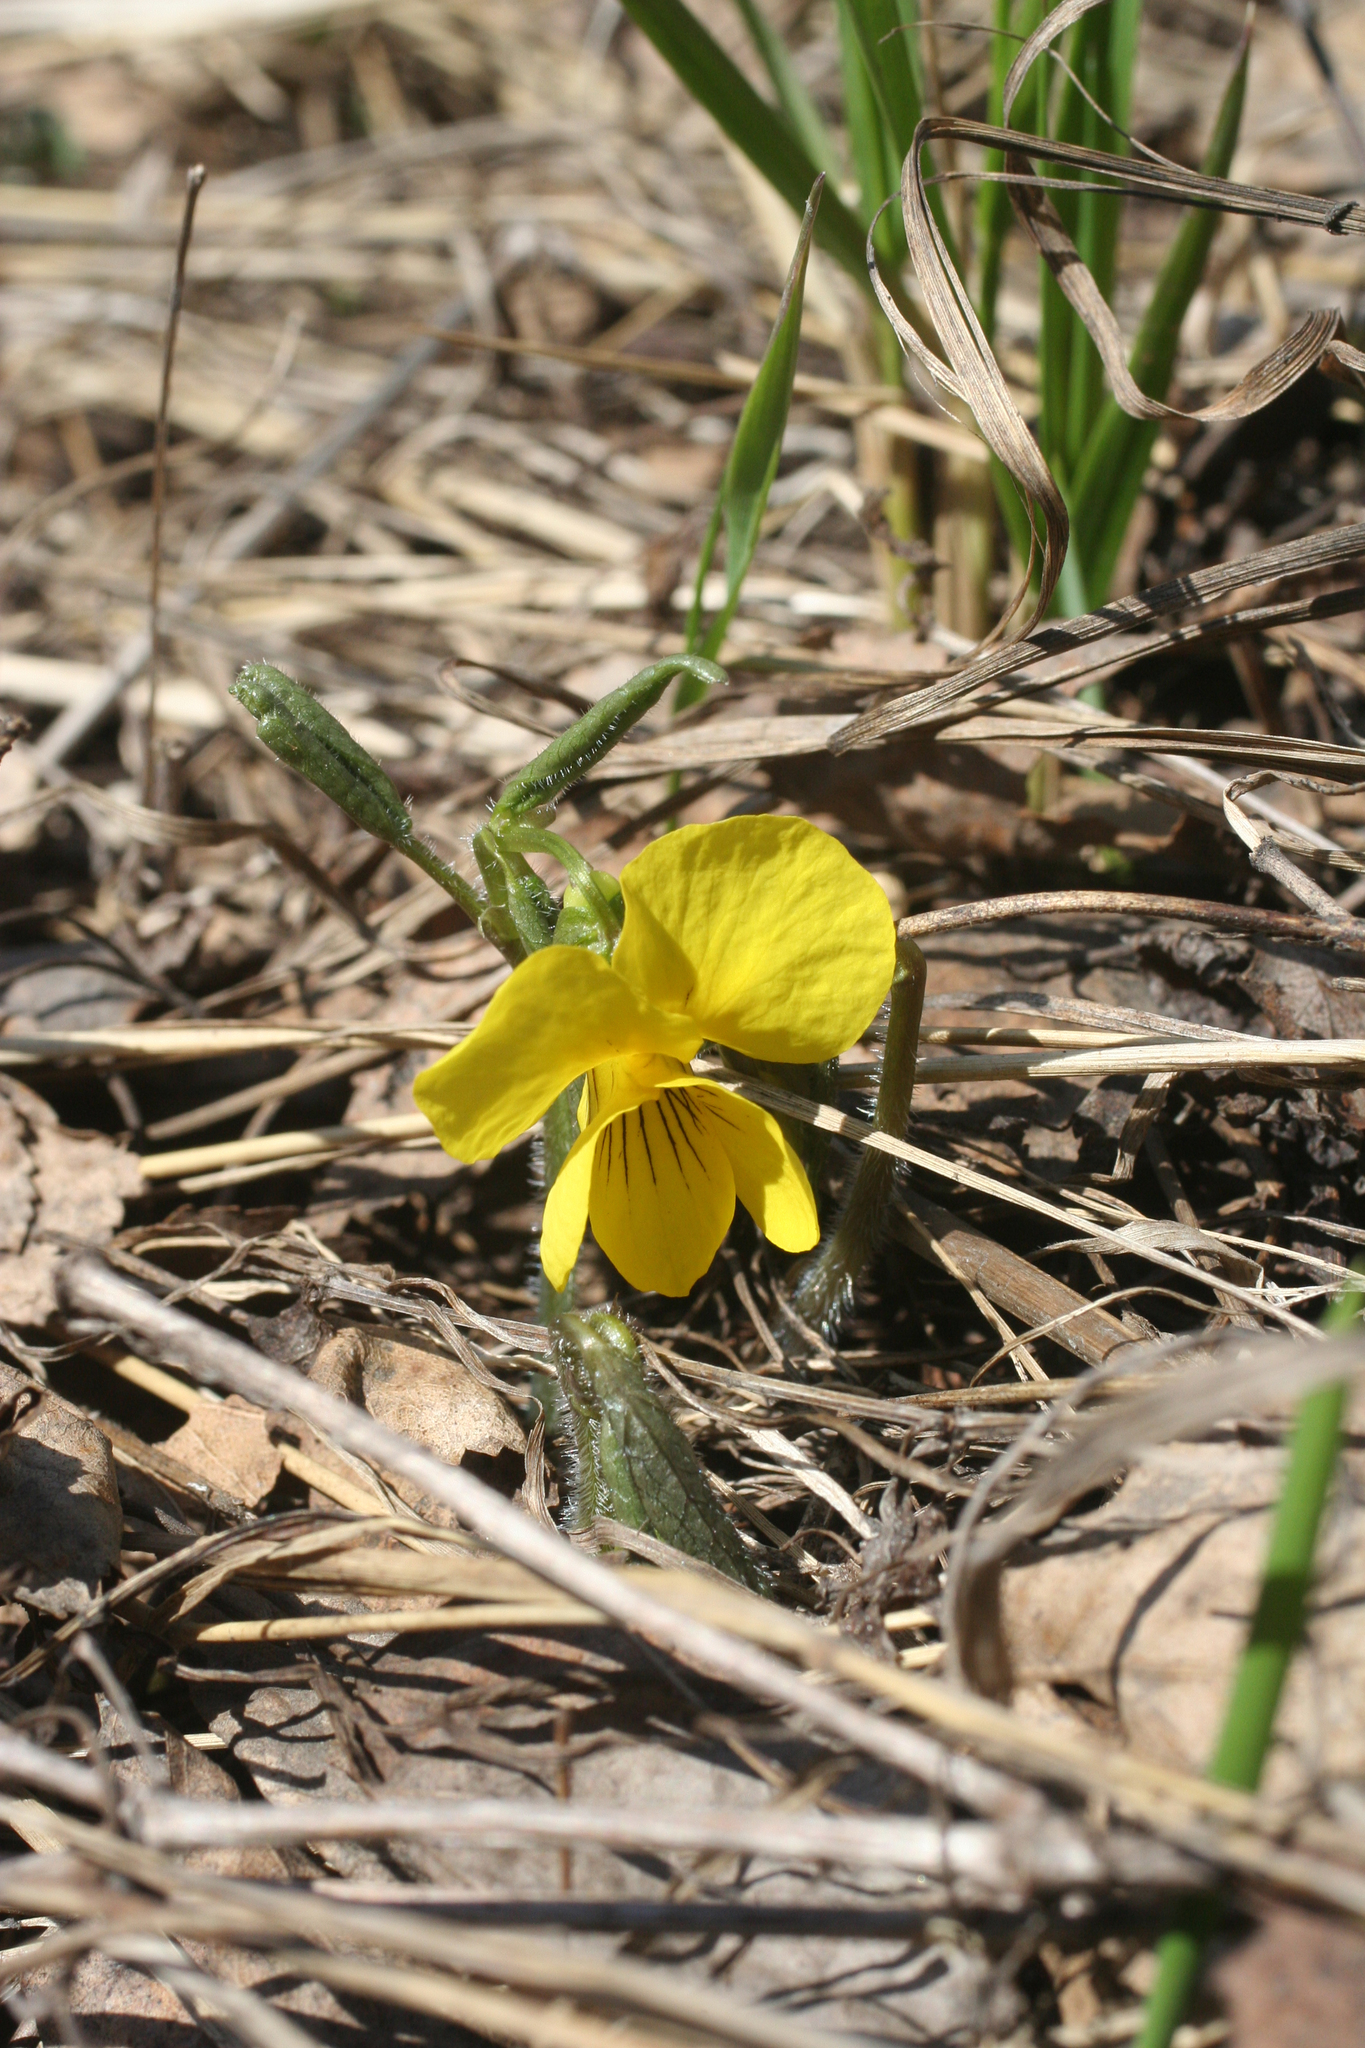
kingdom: Plantae
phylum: Tracheophyta
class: Magnoliopsida
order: Malpighiales
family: Violaceae
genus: Viola
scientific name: Viola uniflora
